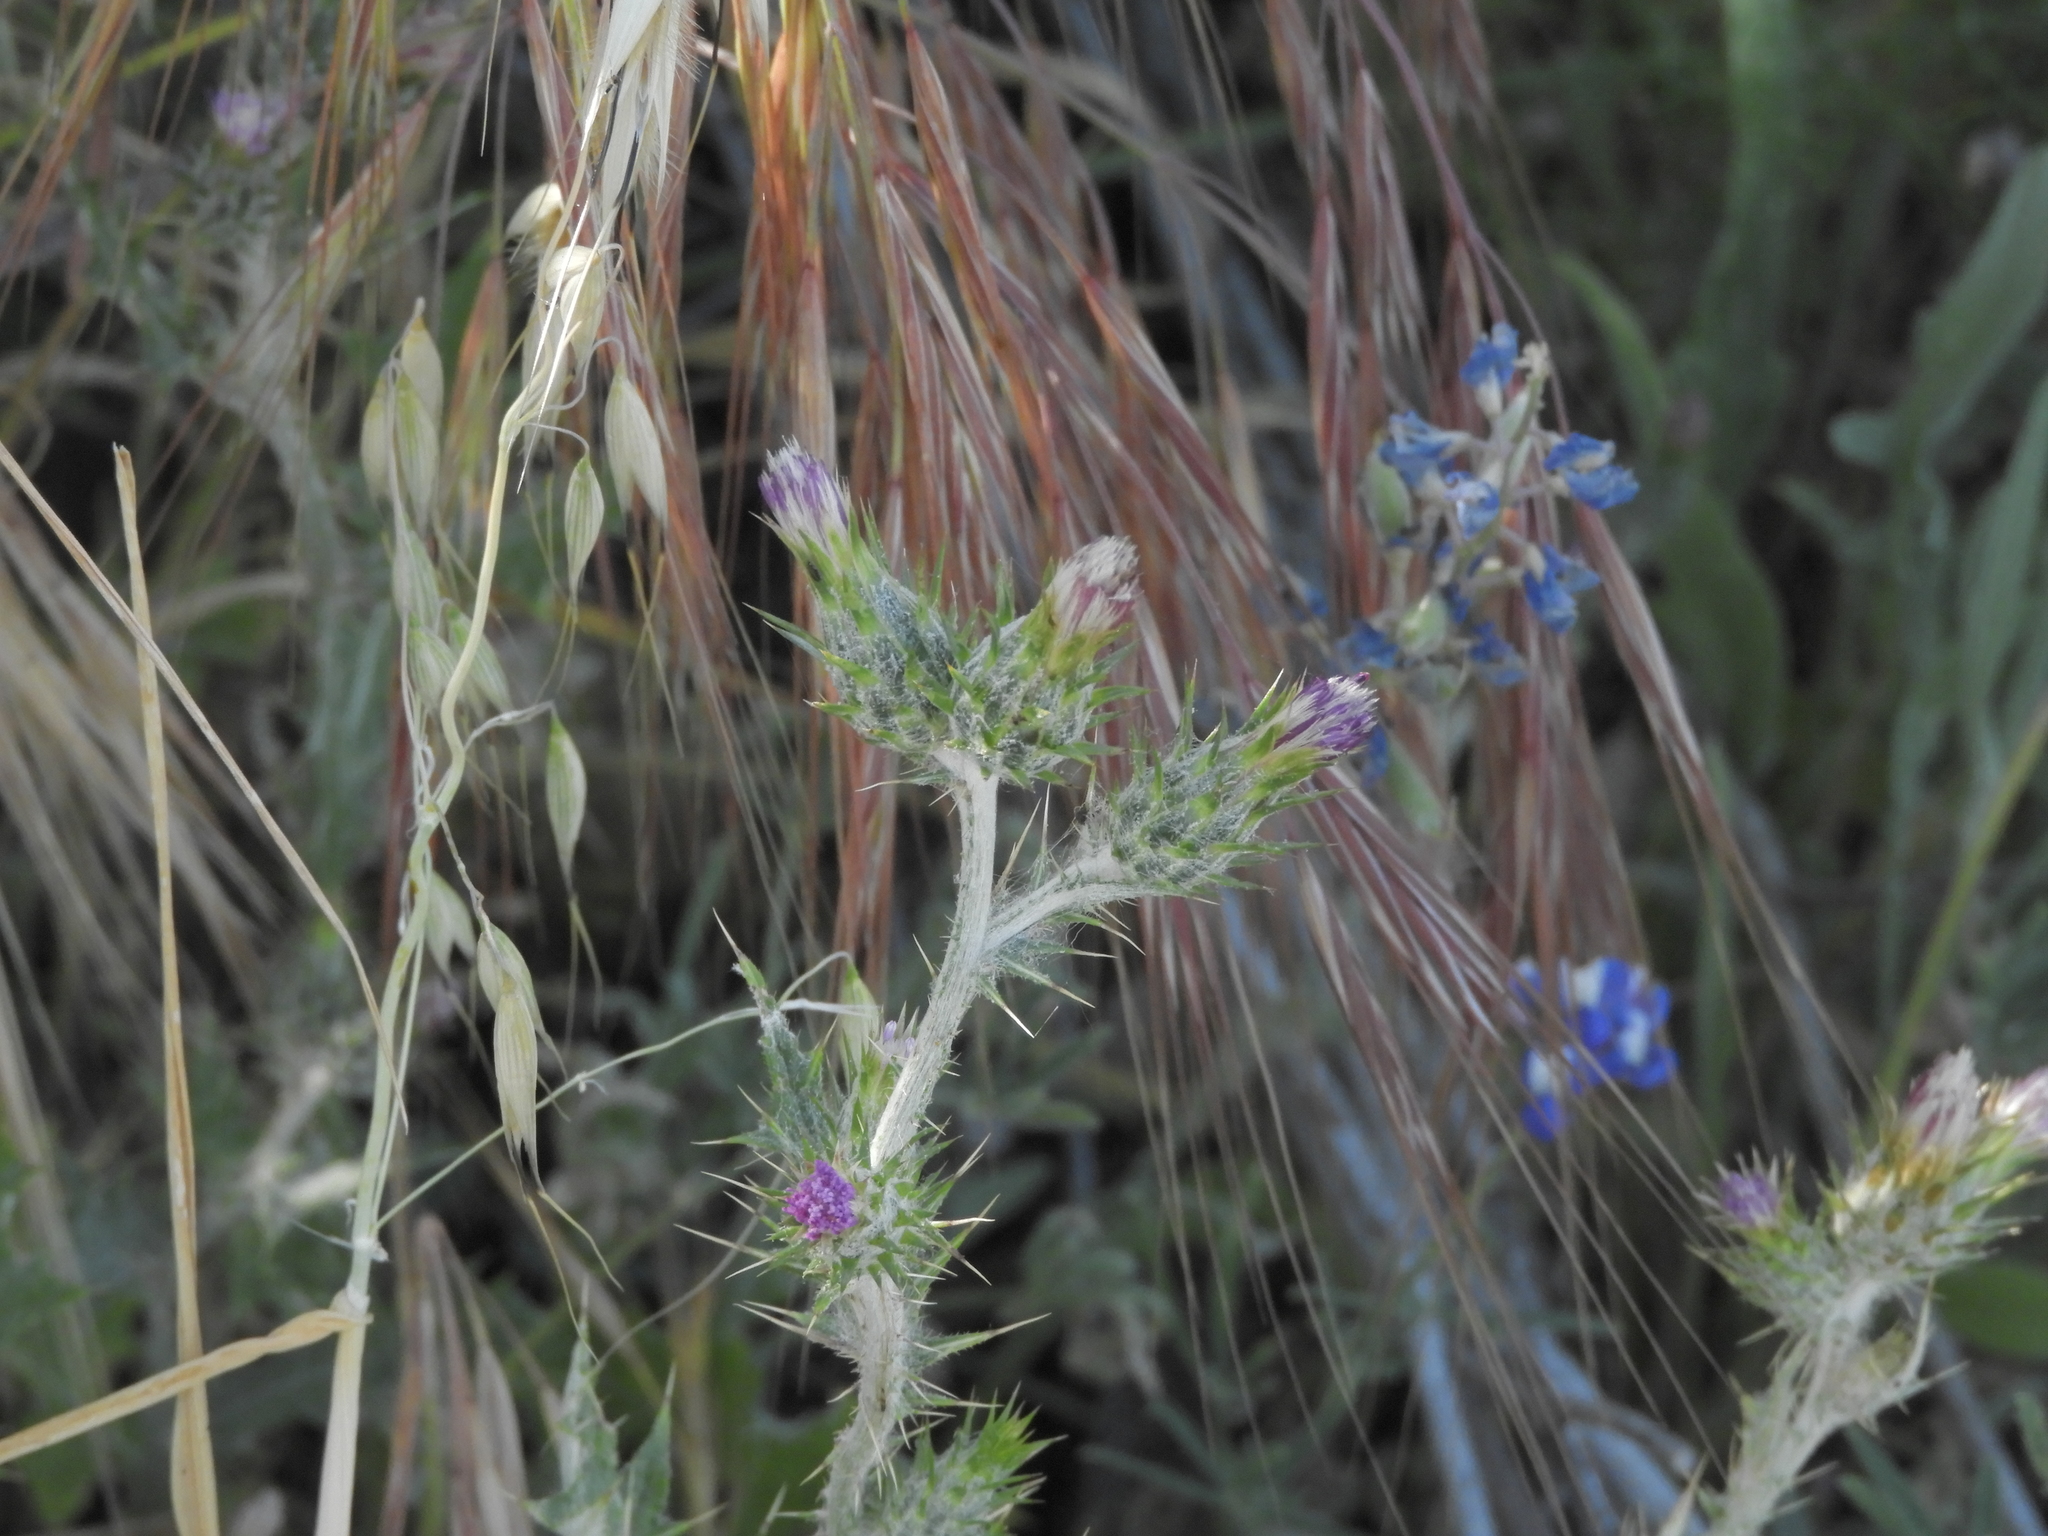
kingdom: Plantae
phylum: Tracheophyta
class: Magnoliopsida
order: Asterales
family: Asteraceae
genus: Carduus
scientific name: Carduus pycnocephalus
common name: Plymouth thistle
